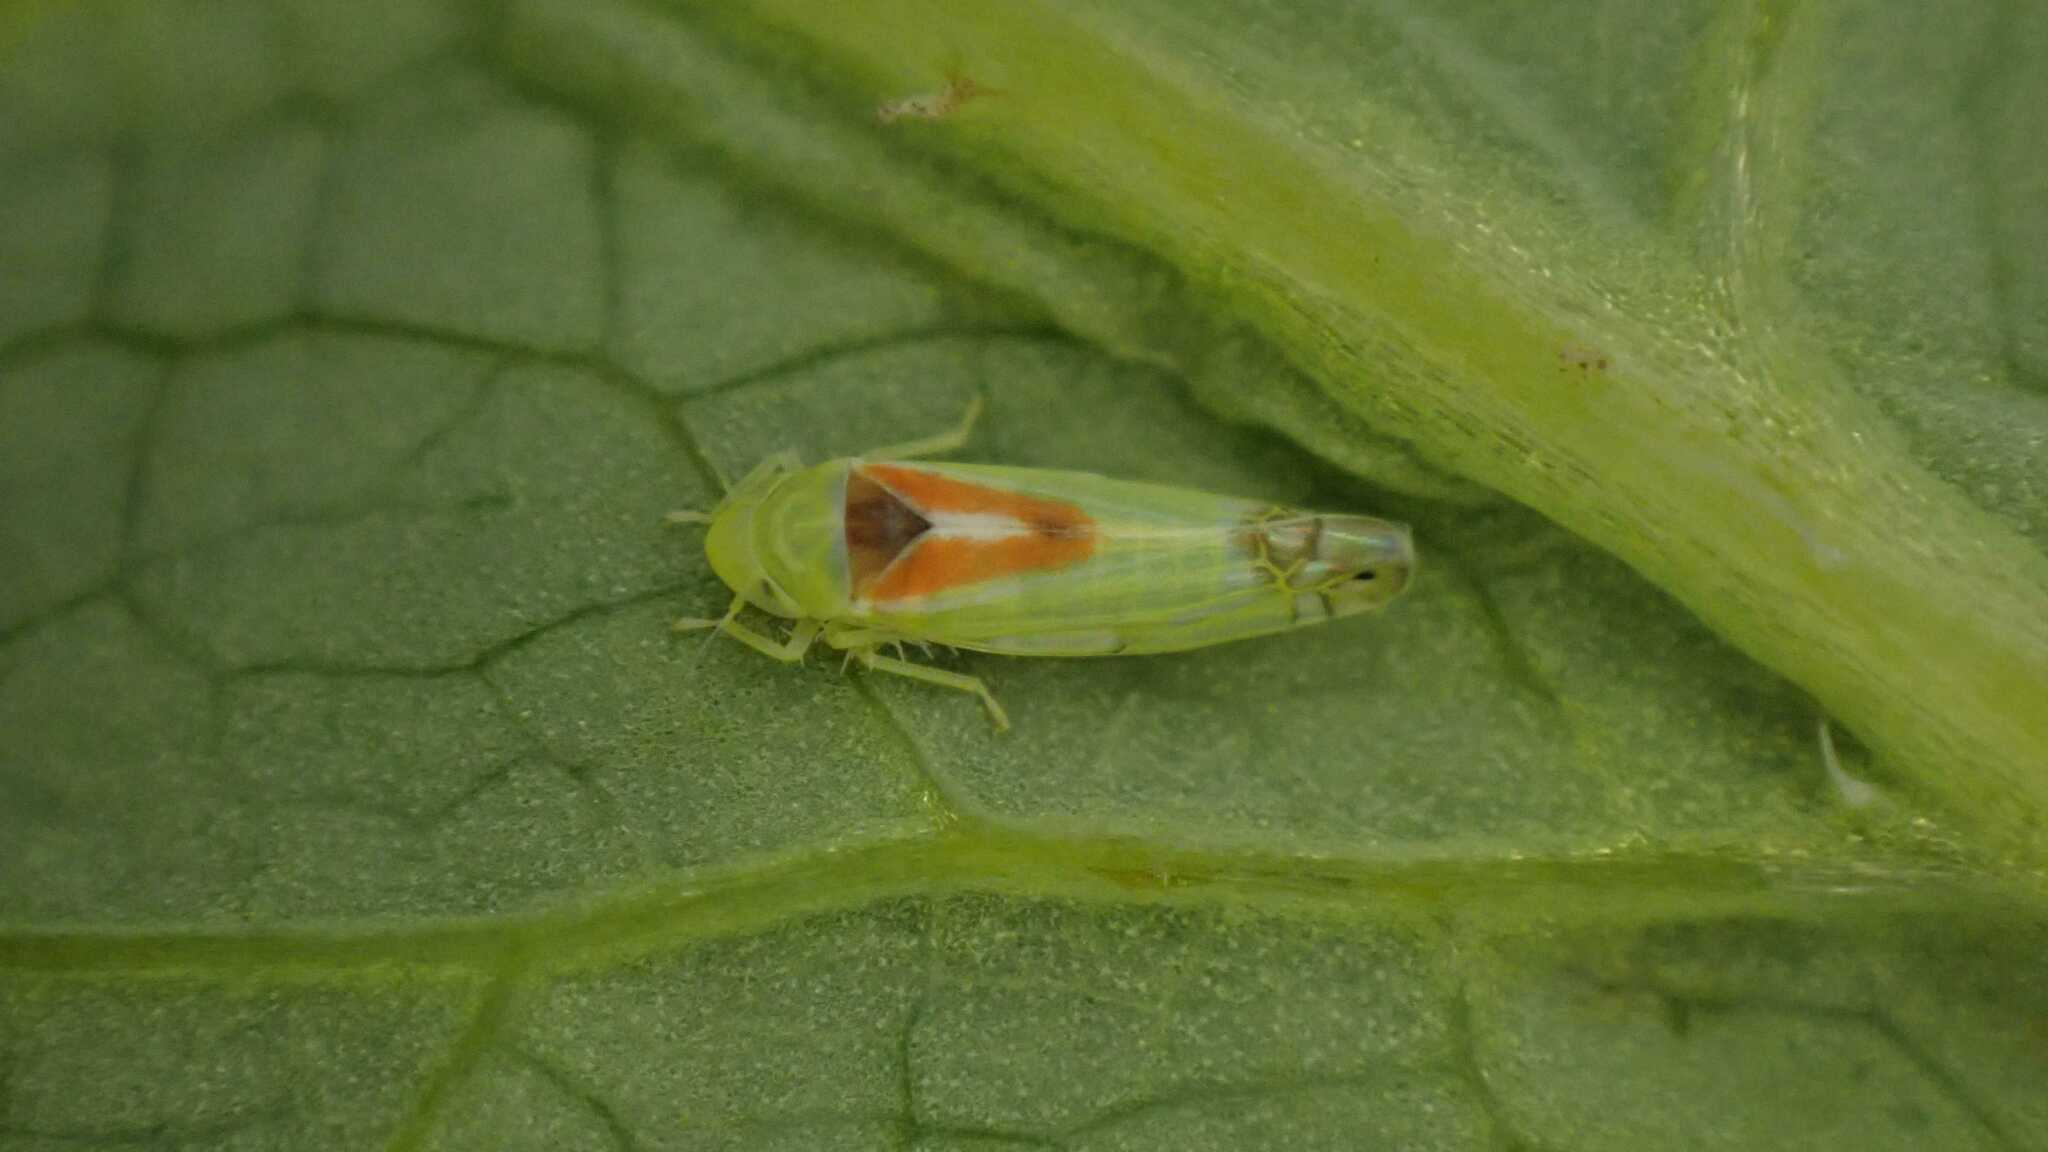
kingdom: Animalia
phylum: Arthropoda
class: Insecta
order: Hemiptera
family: Cicadellidae
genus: Zyginella
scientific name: Zyginella pulchra
